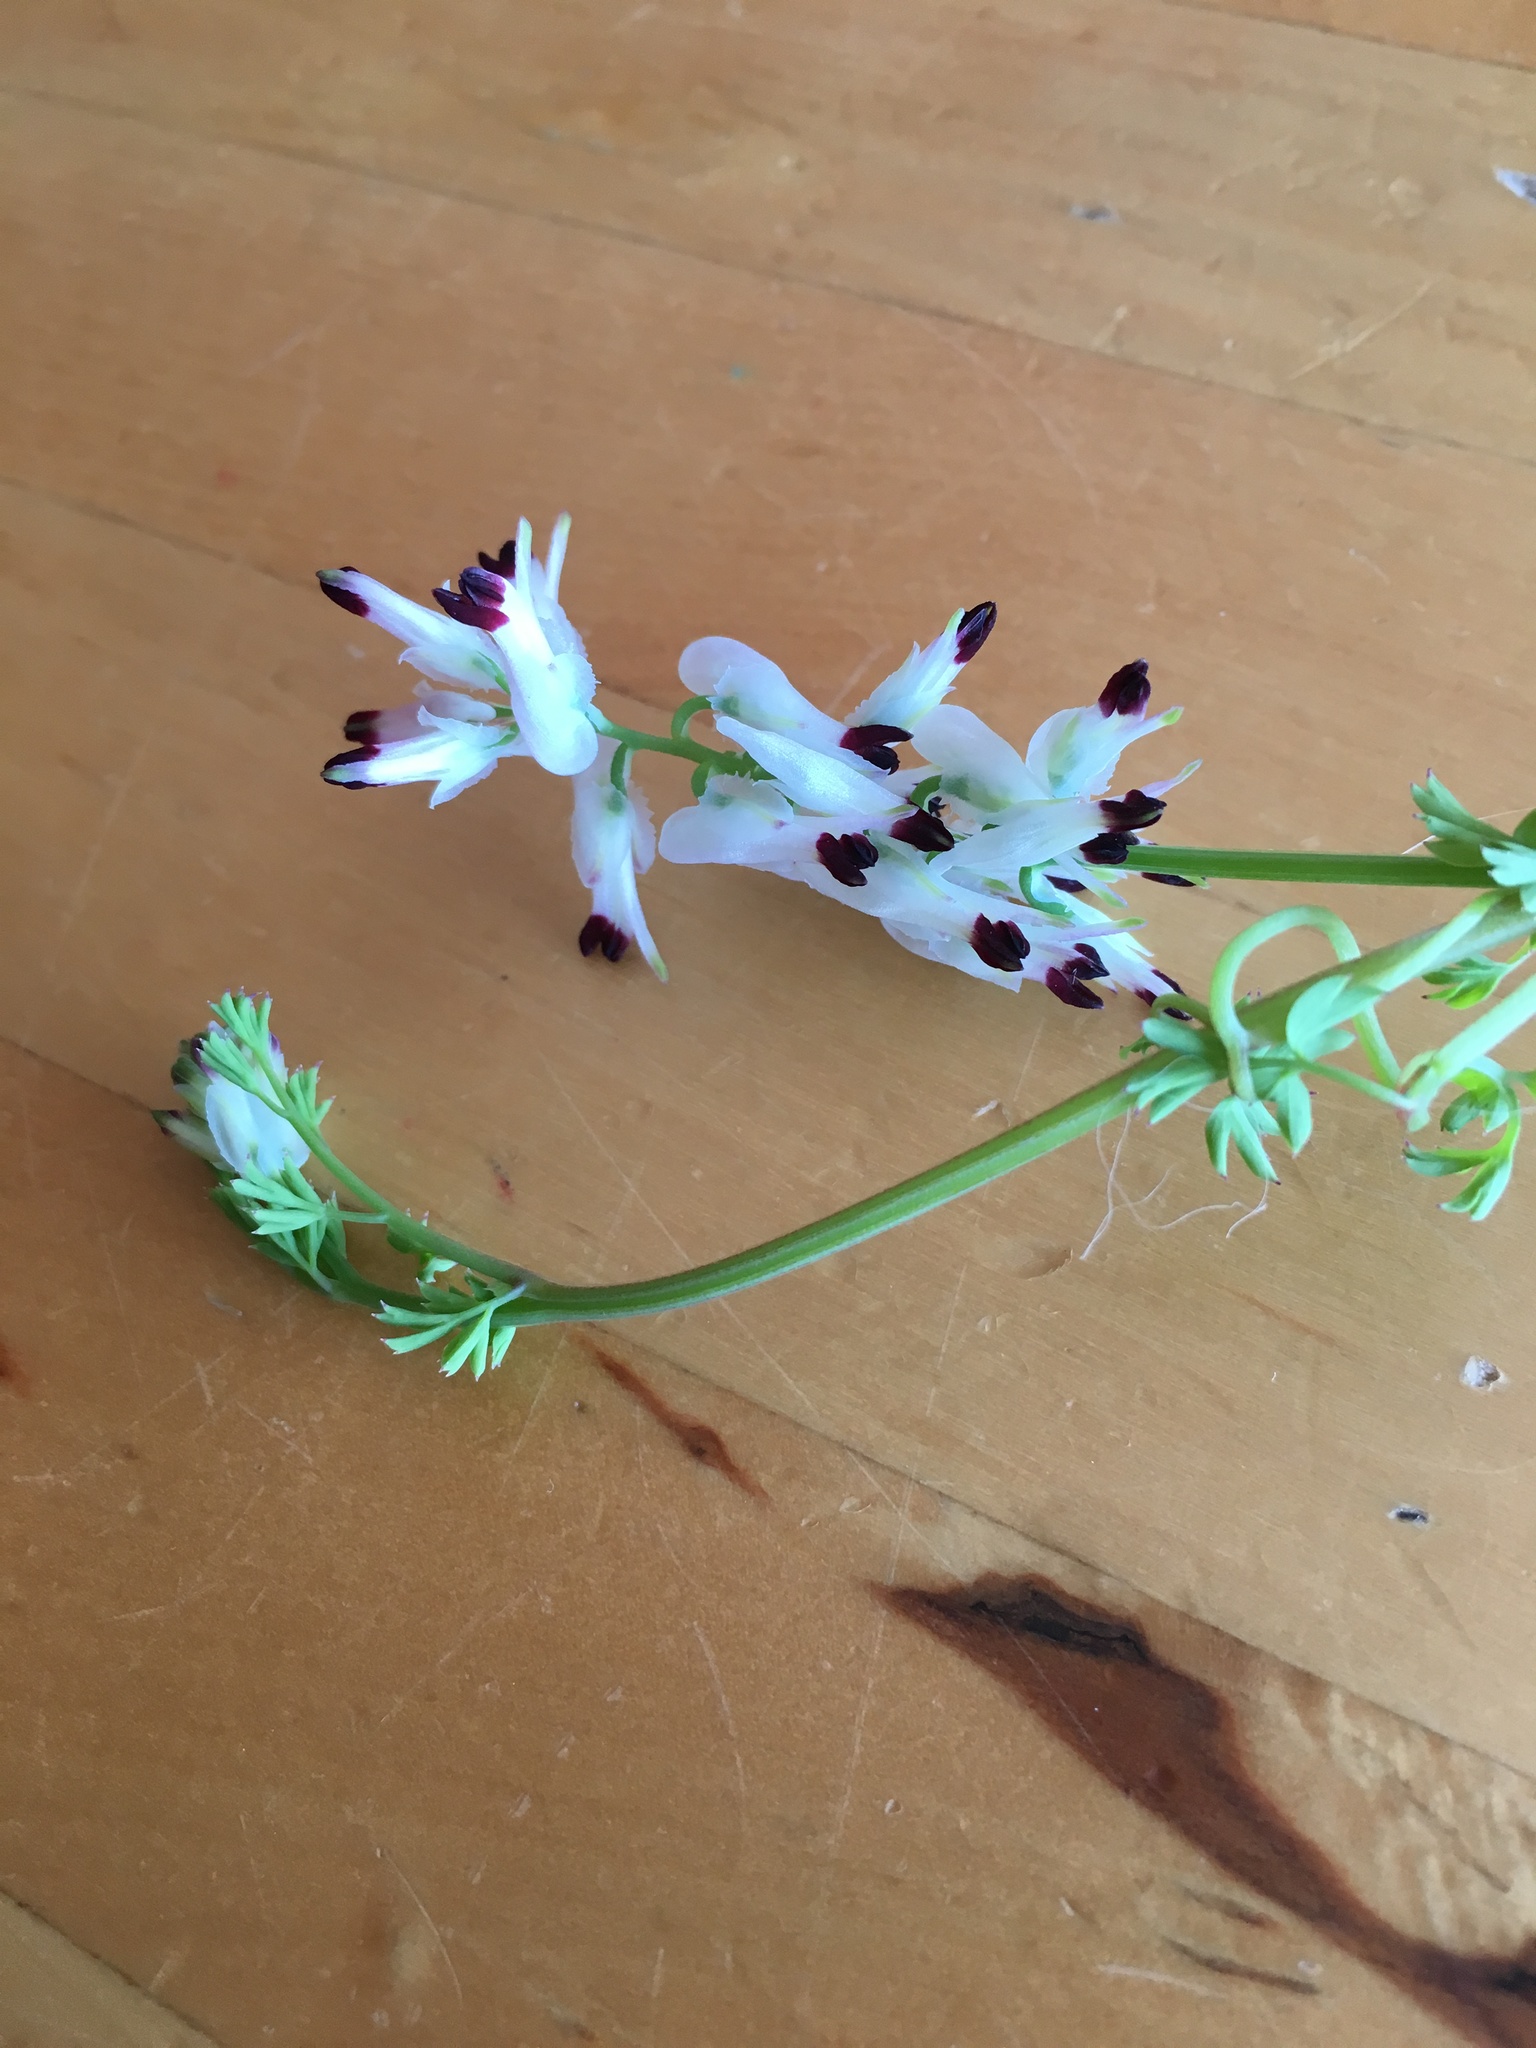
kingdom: Plantae
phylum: Tracheophyta
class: Magnoliopsida
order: Ranunculales
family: Papaveraceae
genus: Fumaria
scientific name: Fumaria capreolata
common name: White ramping-fumitory
